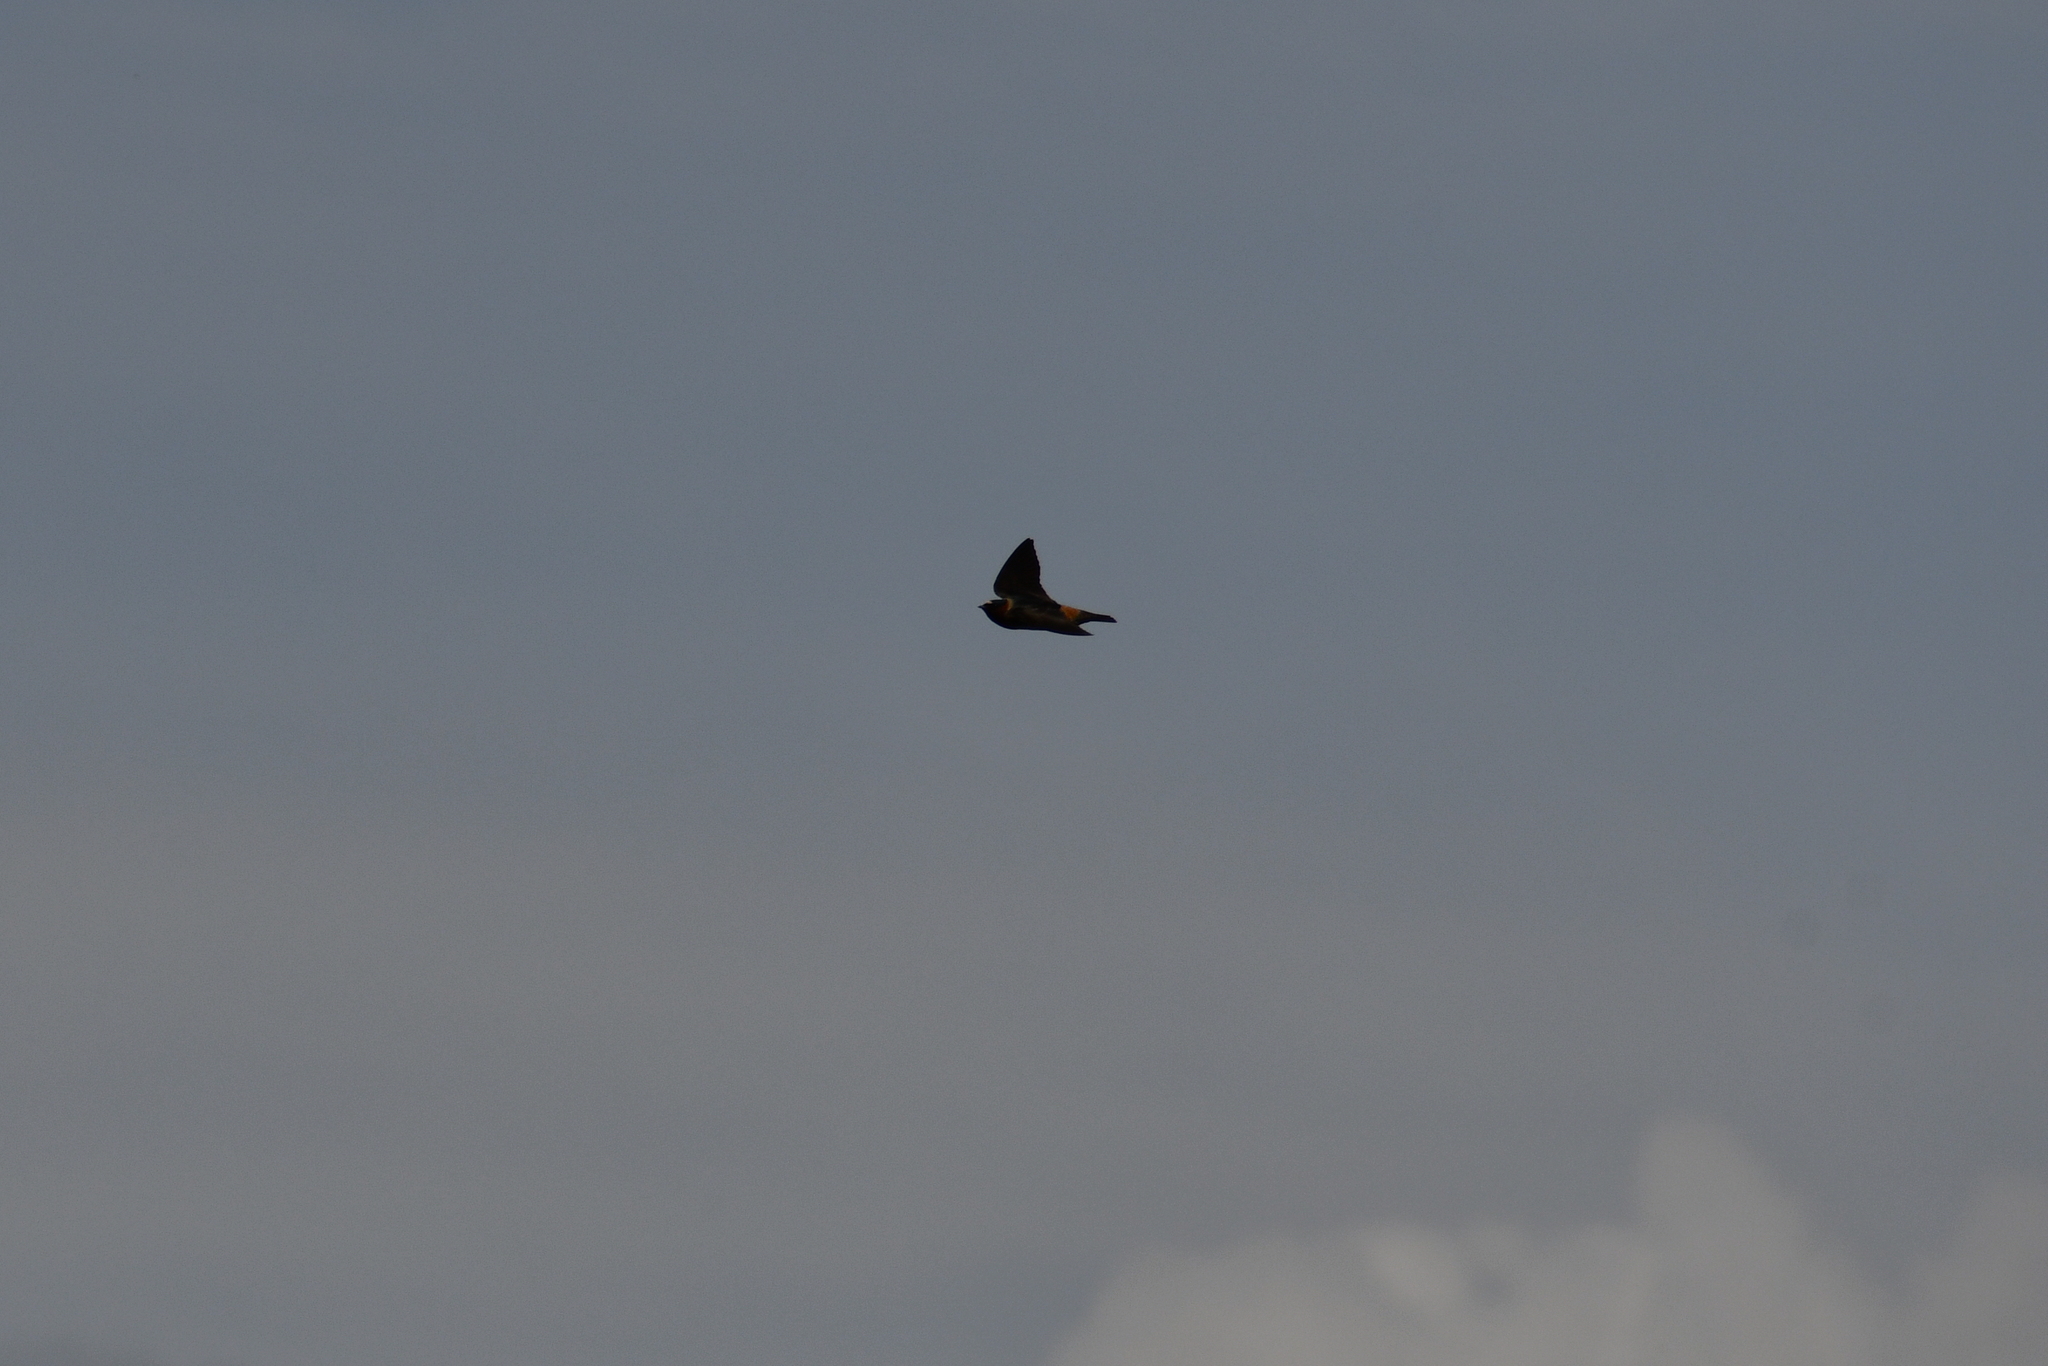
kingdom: Animalia
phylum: Chordata
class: Aves
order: Passeriformes
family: Hirundinidae
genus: Petrochelidon
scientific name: Petrochelidon pyrrhonota
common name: American cliff swallow
